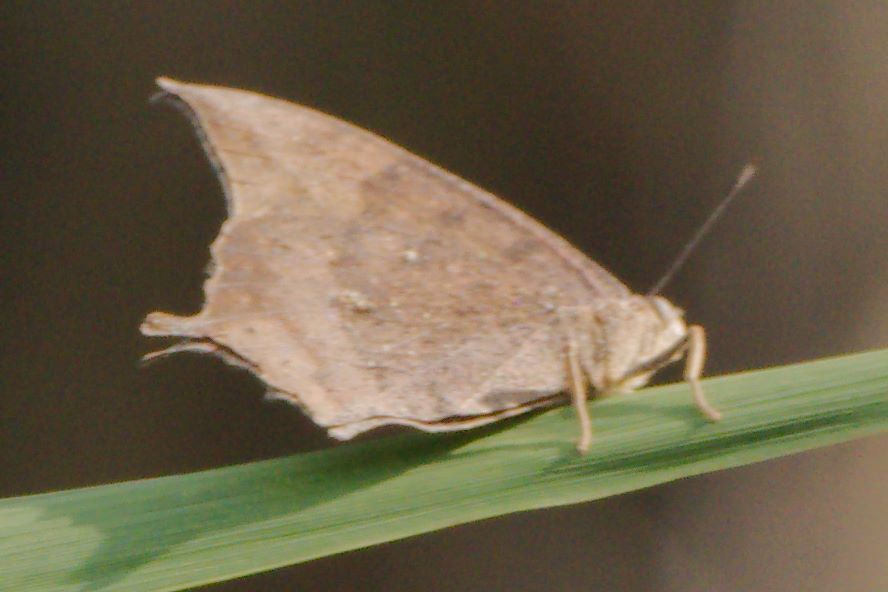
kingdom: Animalia
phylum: Arthropoda
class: Insecta
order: Lepidoptera
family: Nymphalidae
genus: Anaea
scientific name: Anaea aidea
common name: Tropical leafwing
